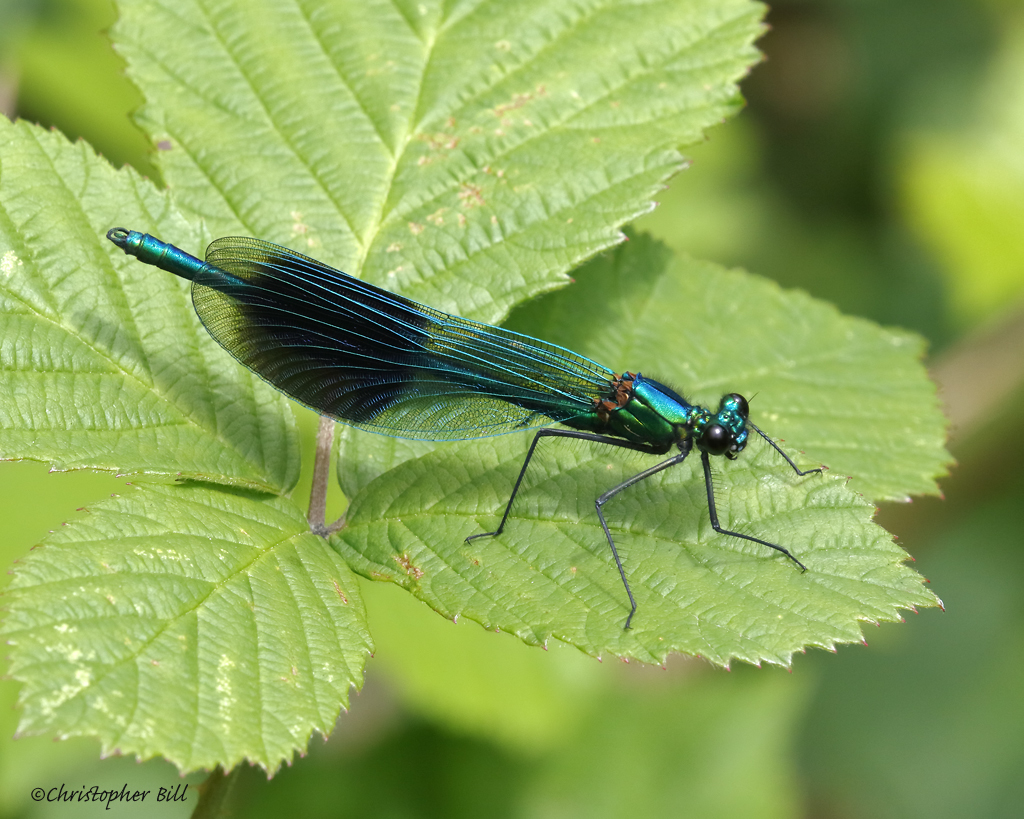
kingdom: Animalia
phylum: Arthropoda
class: Insecta
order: Odonata
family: Calopterygidae
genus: Calopteryx
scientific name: Calopteryx splendens
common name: Banded demoiselle
